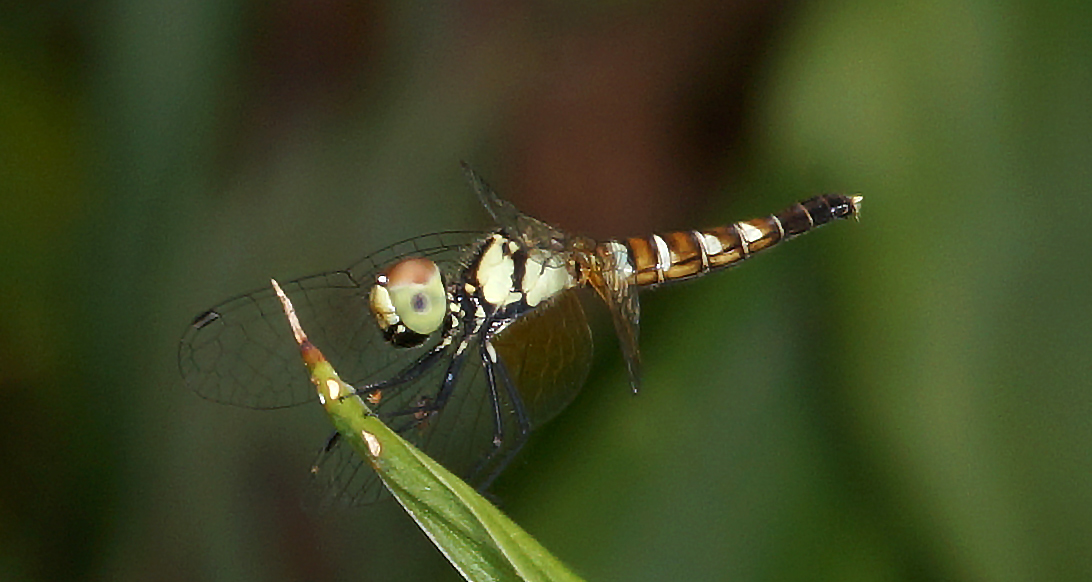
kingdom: Animalia
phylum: Arthropoda
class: Insecta
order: Odonata
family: Libellulidae
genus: Nannophya
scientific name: Nannophya pygmaea
